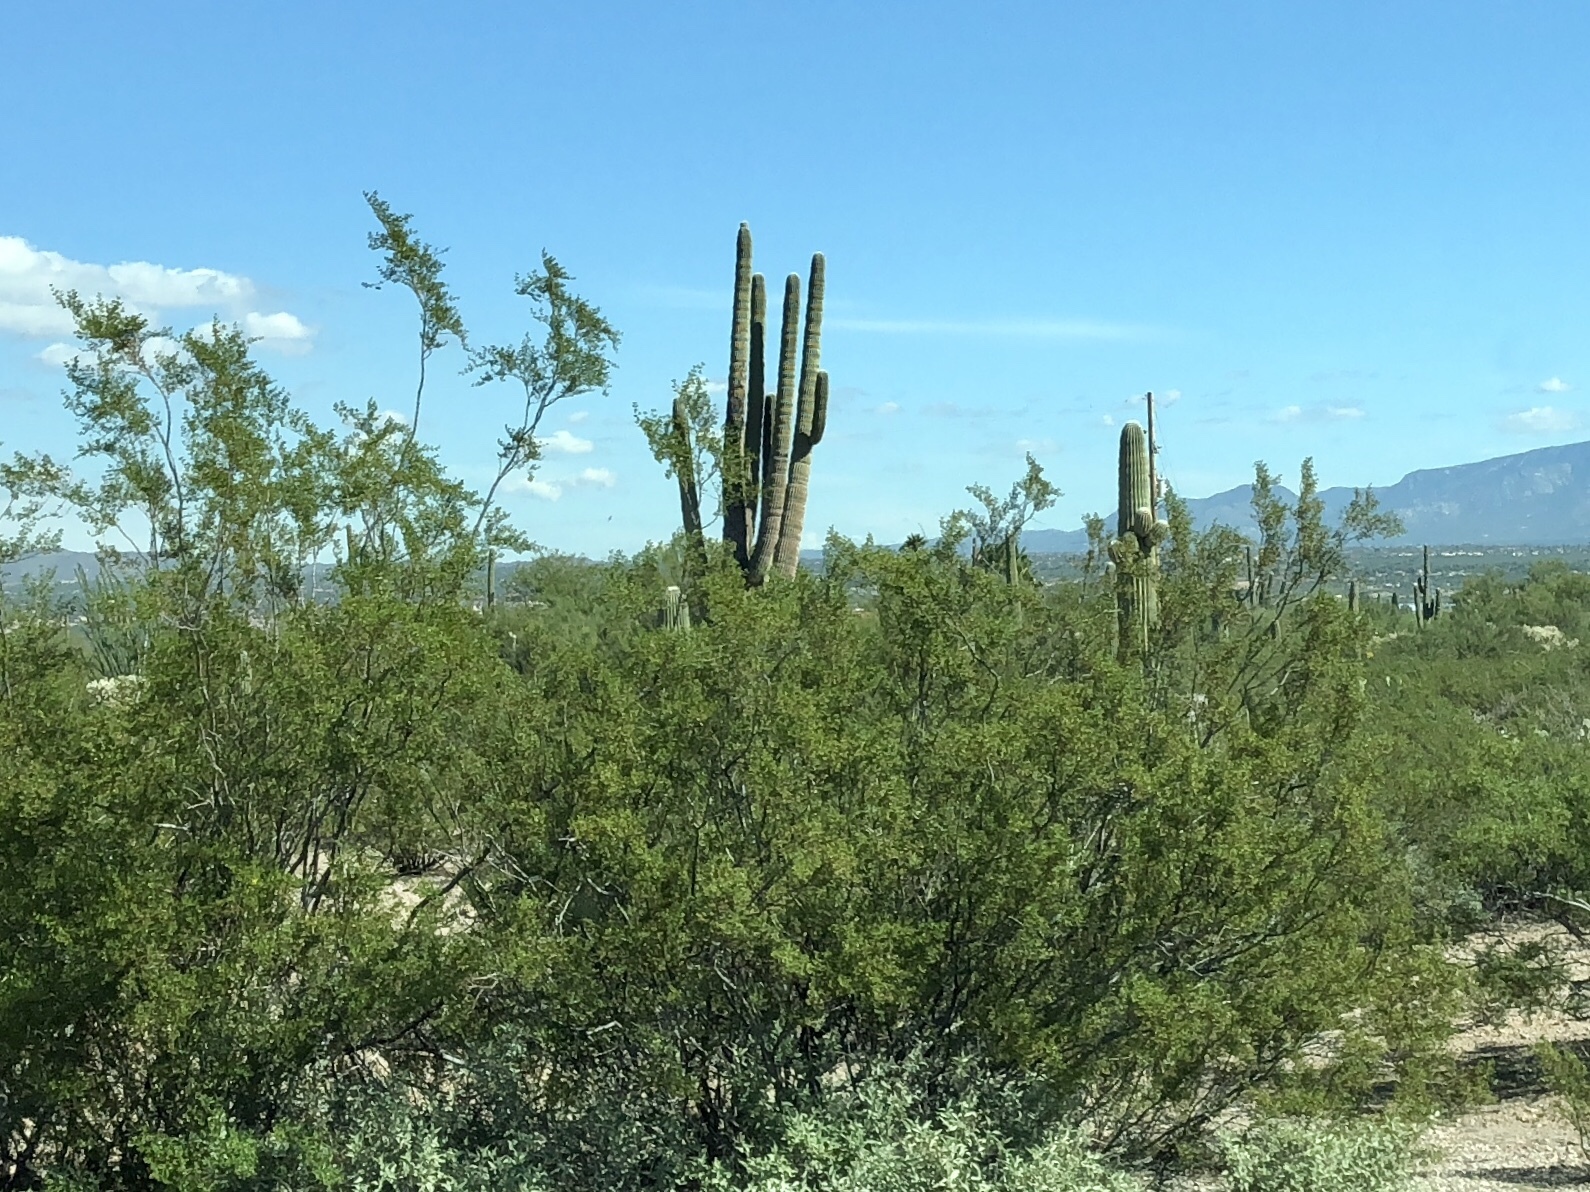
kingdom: Plantae
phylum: Tracheophyta
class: Magnoliopsida
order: Zygophyllales
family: Zygophyllaceae
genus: Larrea
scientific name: Larrea tridentata
